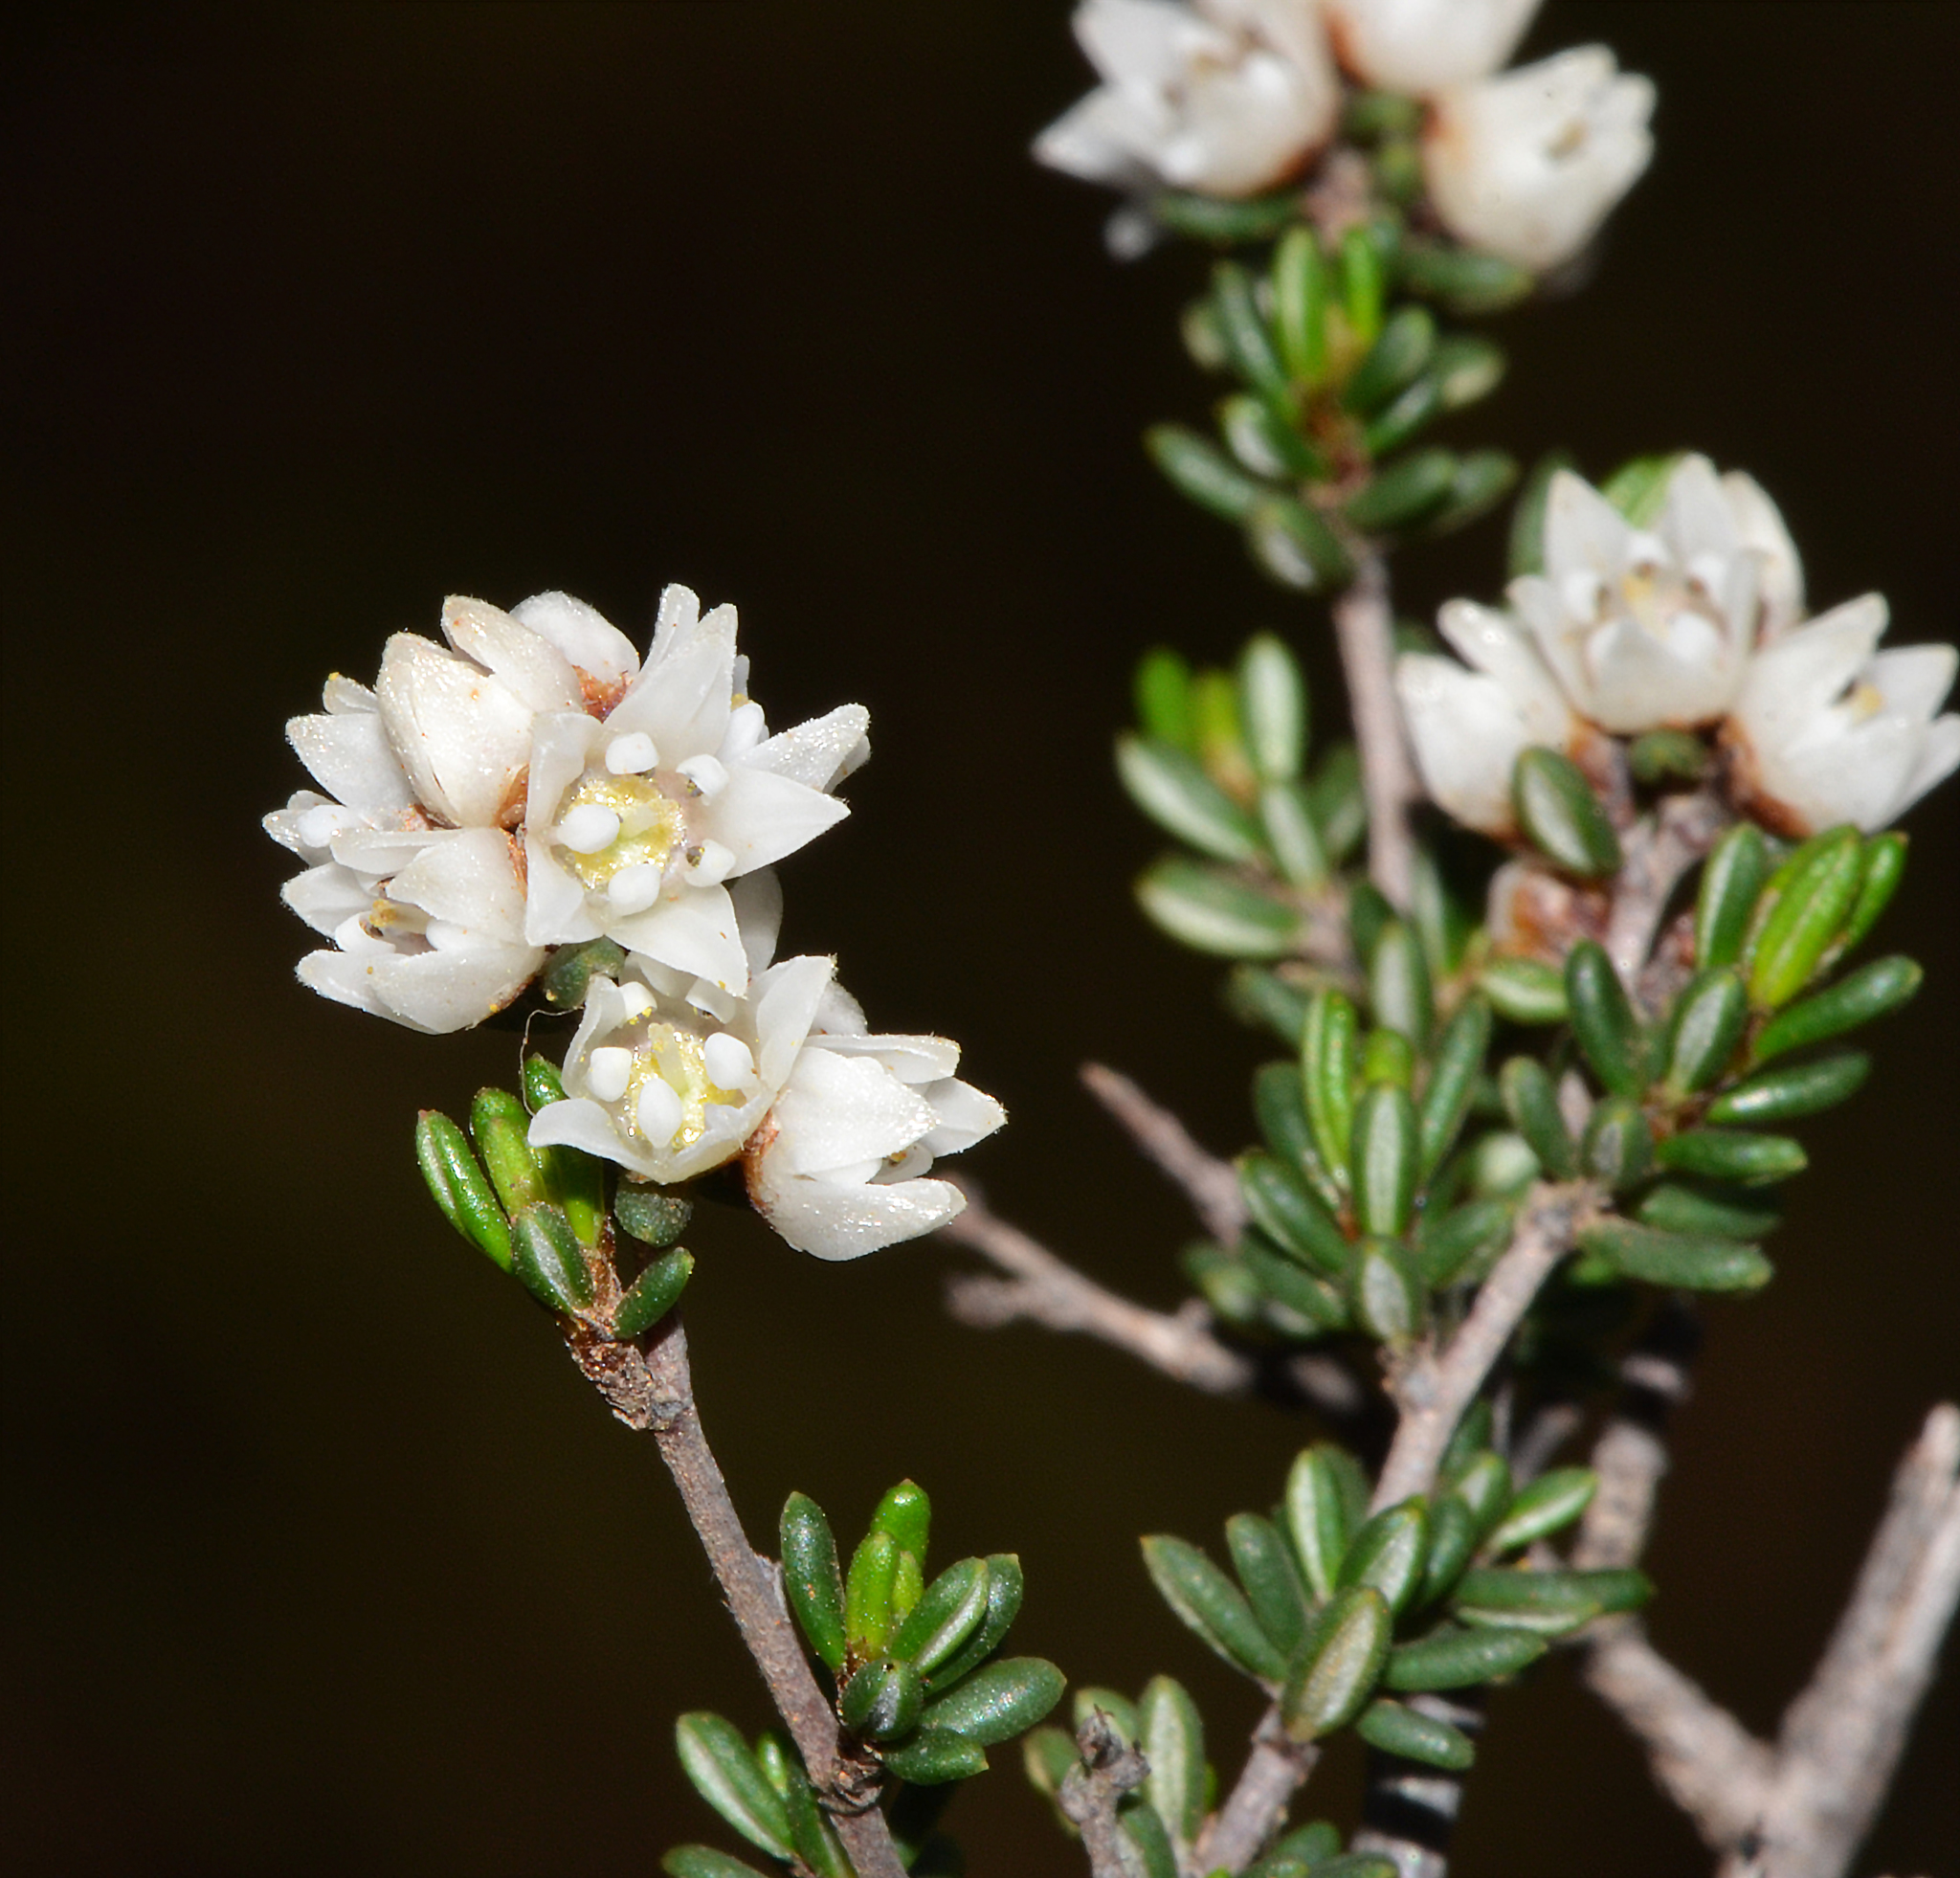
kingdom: Plantae
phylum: Tracheophyta
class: Magnoliopsida
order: Rosales
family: Rhamnaceae
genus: Cryptandra
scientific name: Cryptandra myriantha
